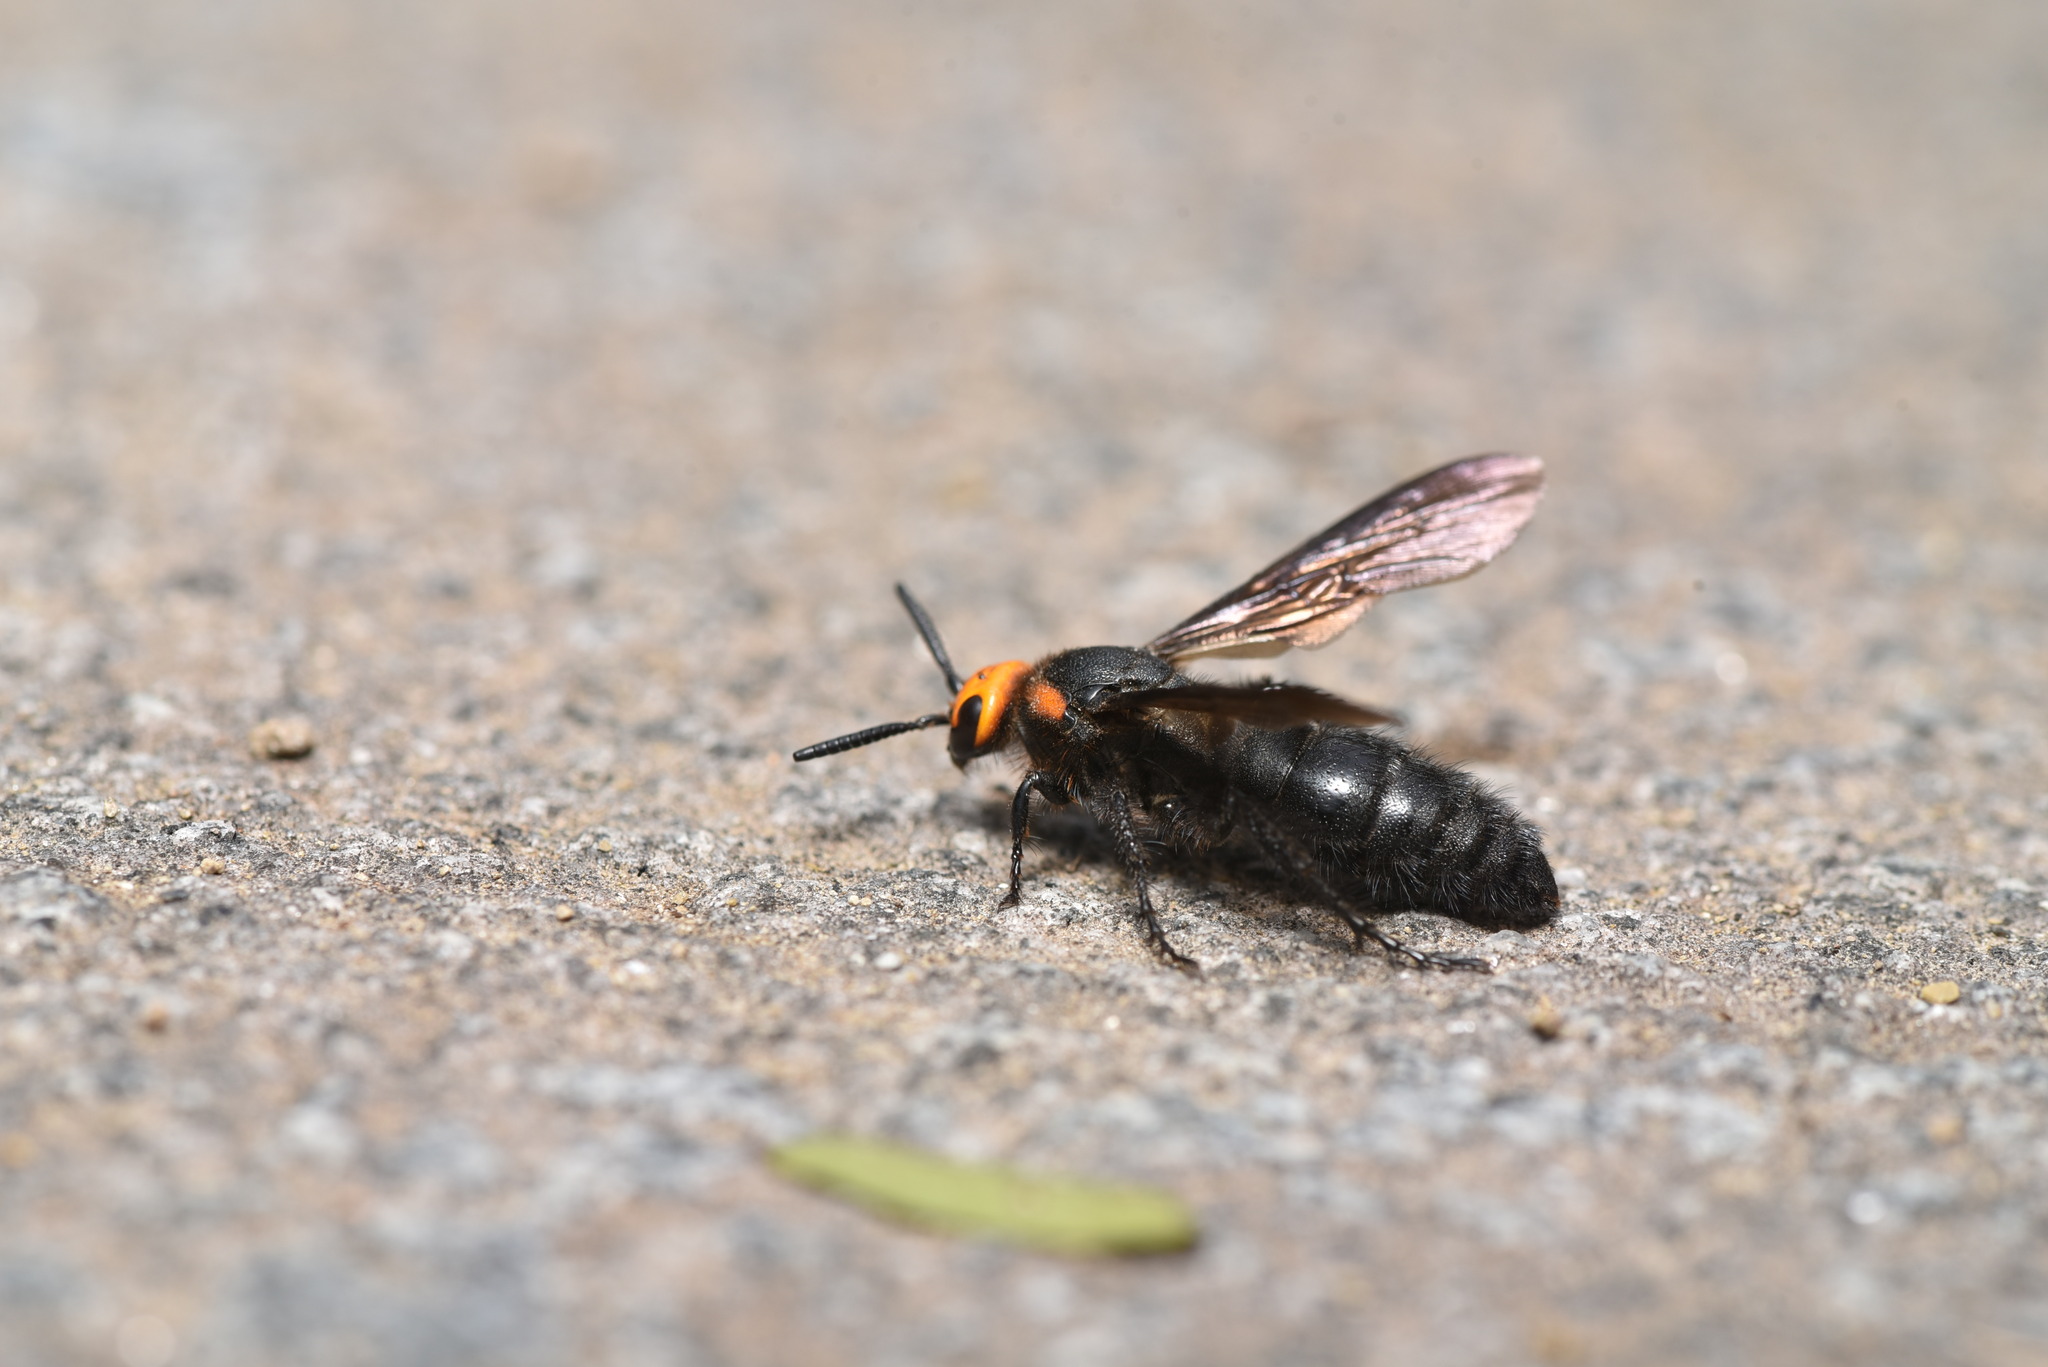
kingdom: Animalia
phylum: Arthropoda
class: Insecta
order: Hymenoptera
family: Scoliidae
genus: Scolia
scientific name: Scolia clypeata
